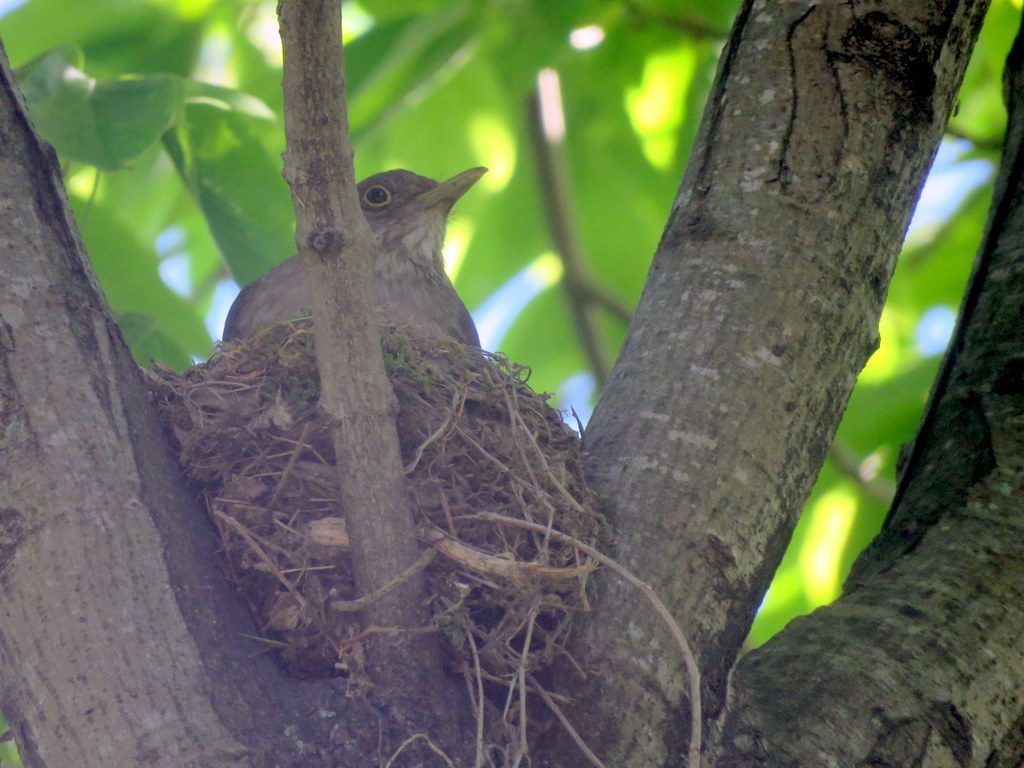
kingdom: Animalia
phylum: Chordata
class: Aves
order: Passeriformes
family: Turdidae
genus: Turdus
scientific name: Turdus rufiventris
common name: Rufous-bellied thrush
